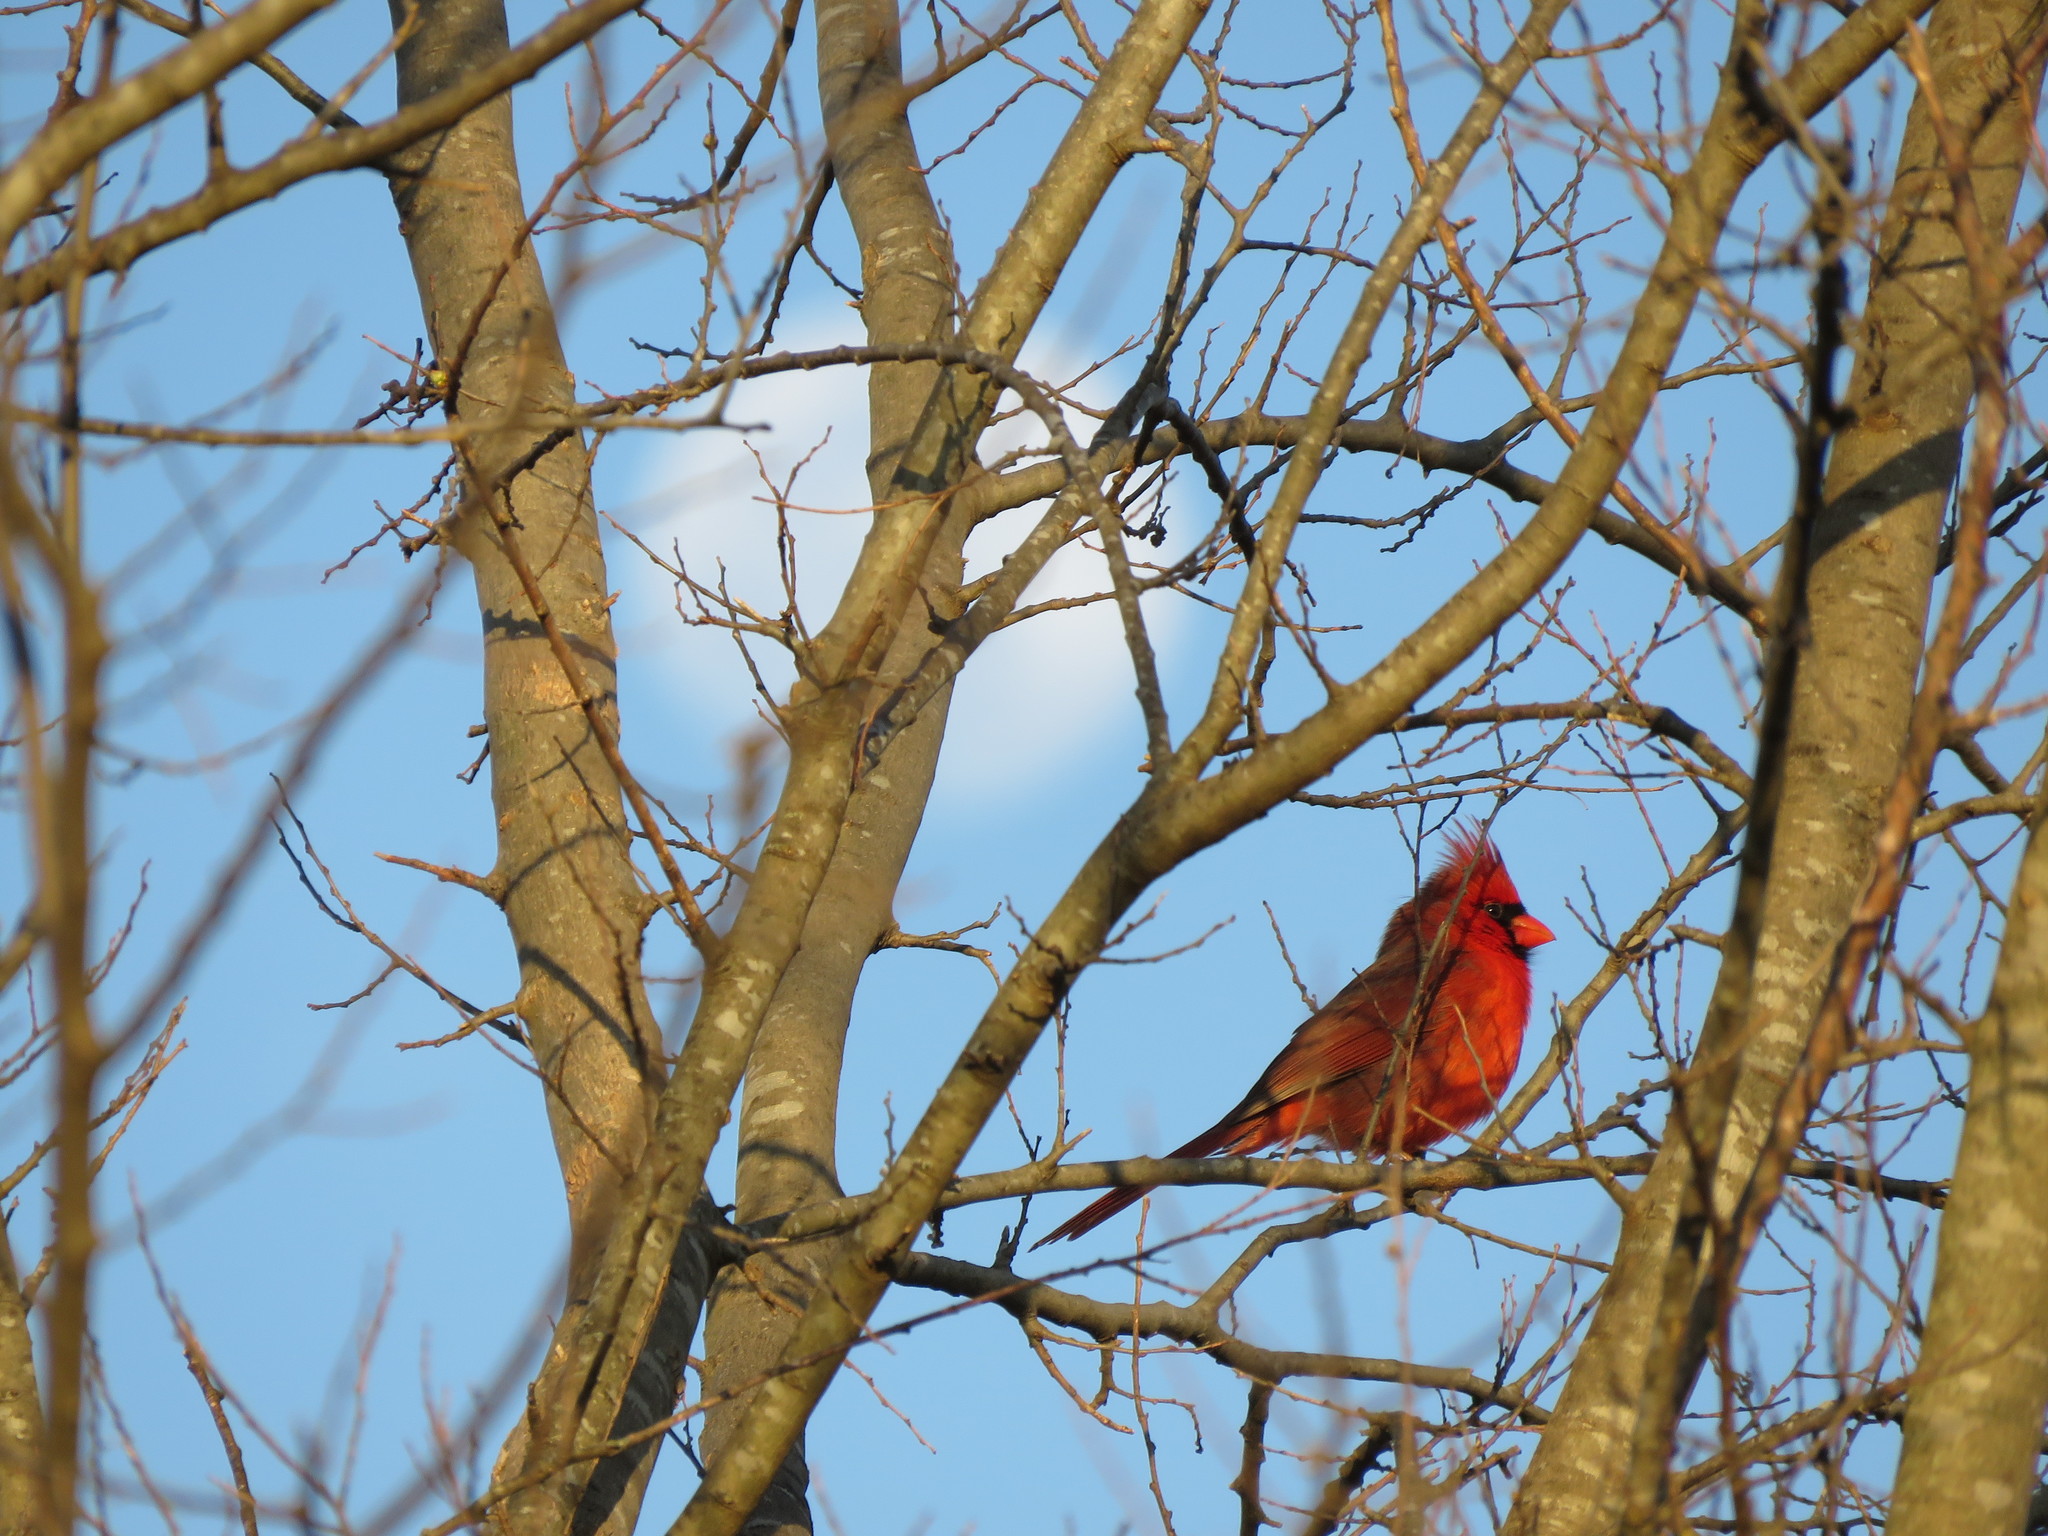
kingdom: Animalia
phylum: Chordata
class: Aves
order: Passeriformes
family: Cardinalidae
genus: Cardinalis
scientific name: Cardinalis cardinalis
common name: Northern cardinal
